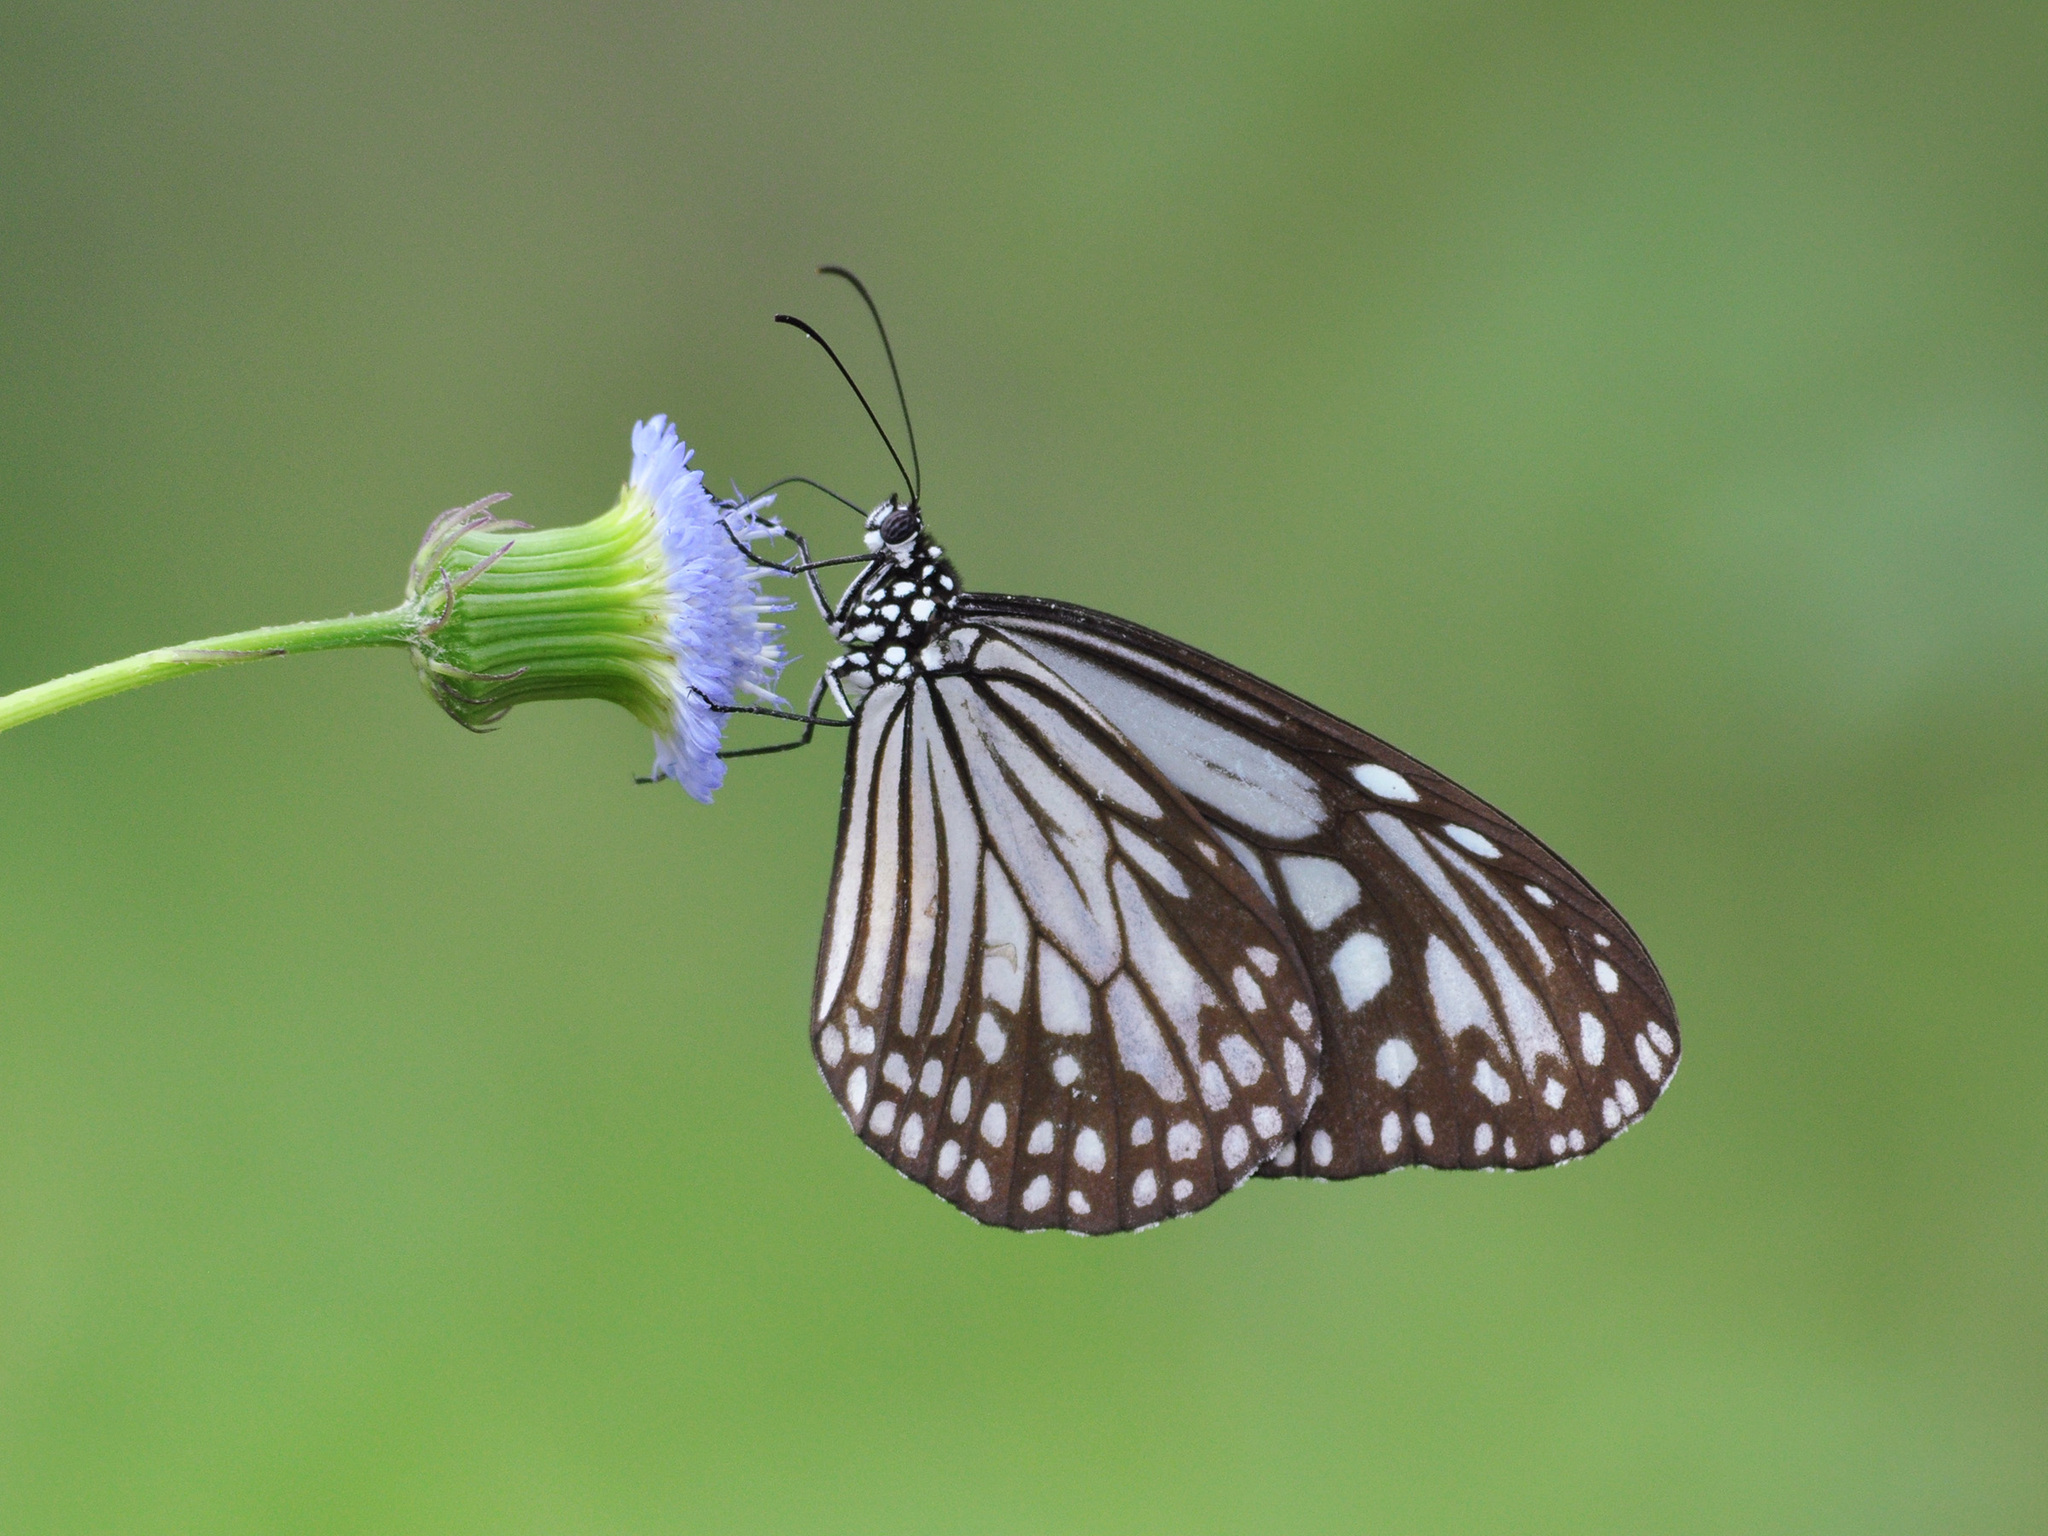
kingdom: Animalia
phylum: Arthropoda
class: Insecta
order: Lepidoptera
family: Nymphalidae
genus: Parantica
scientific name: Parantica aglea
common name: Glassy tiger
